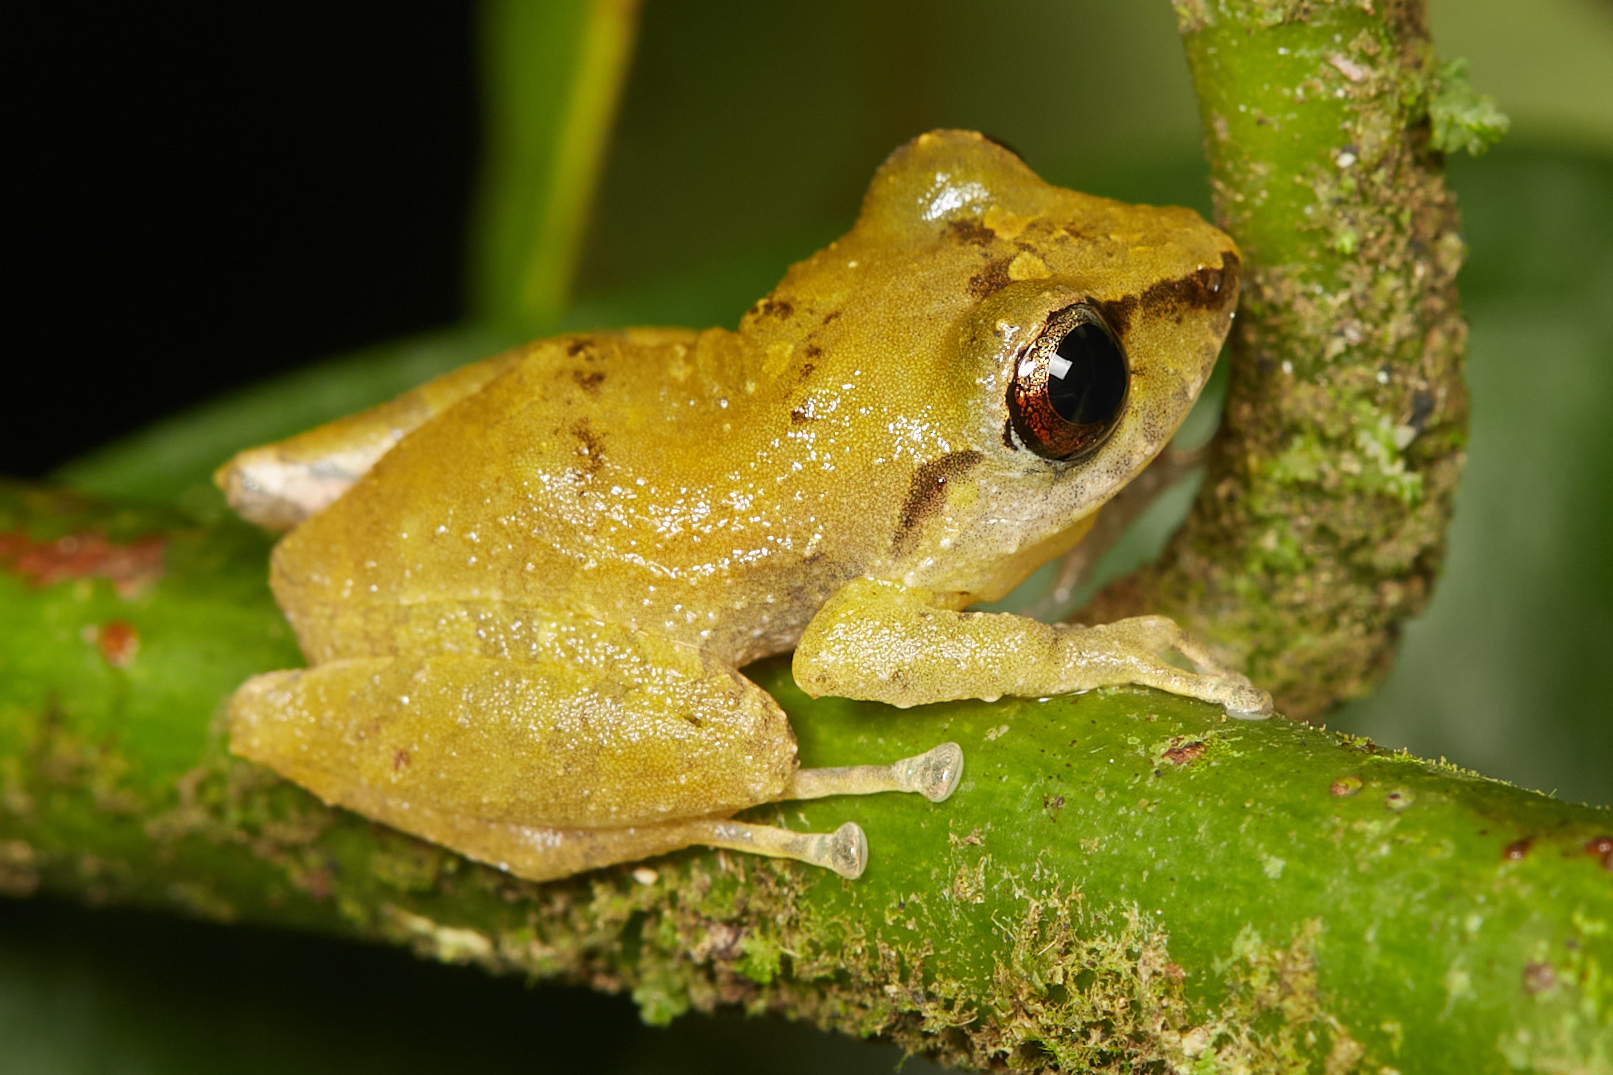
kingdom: Animalia
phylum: Chordata
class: Amphibia
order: Anura
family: Craugastoridae
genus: Pristimantis
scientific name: Pristimantis ridens
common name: Rio san juan robber frog
